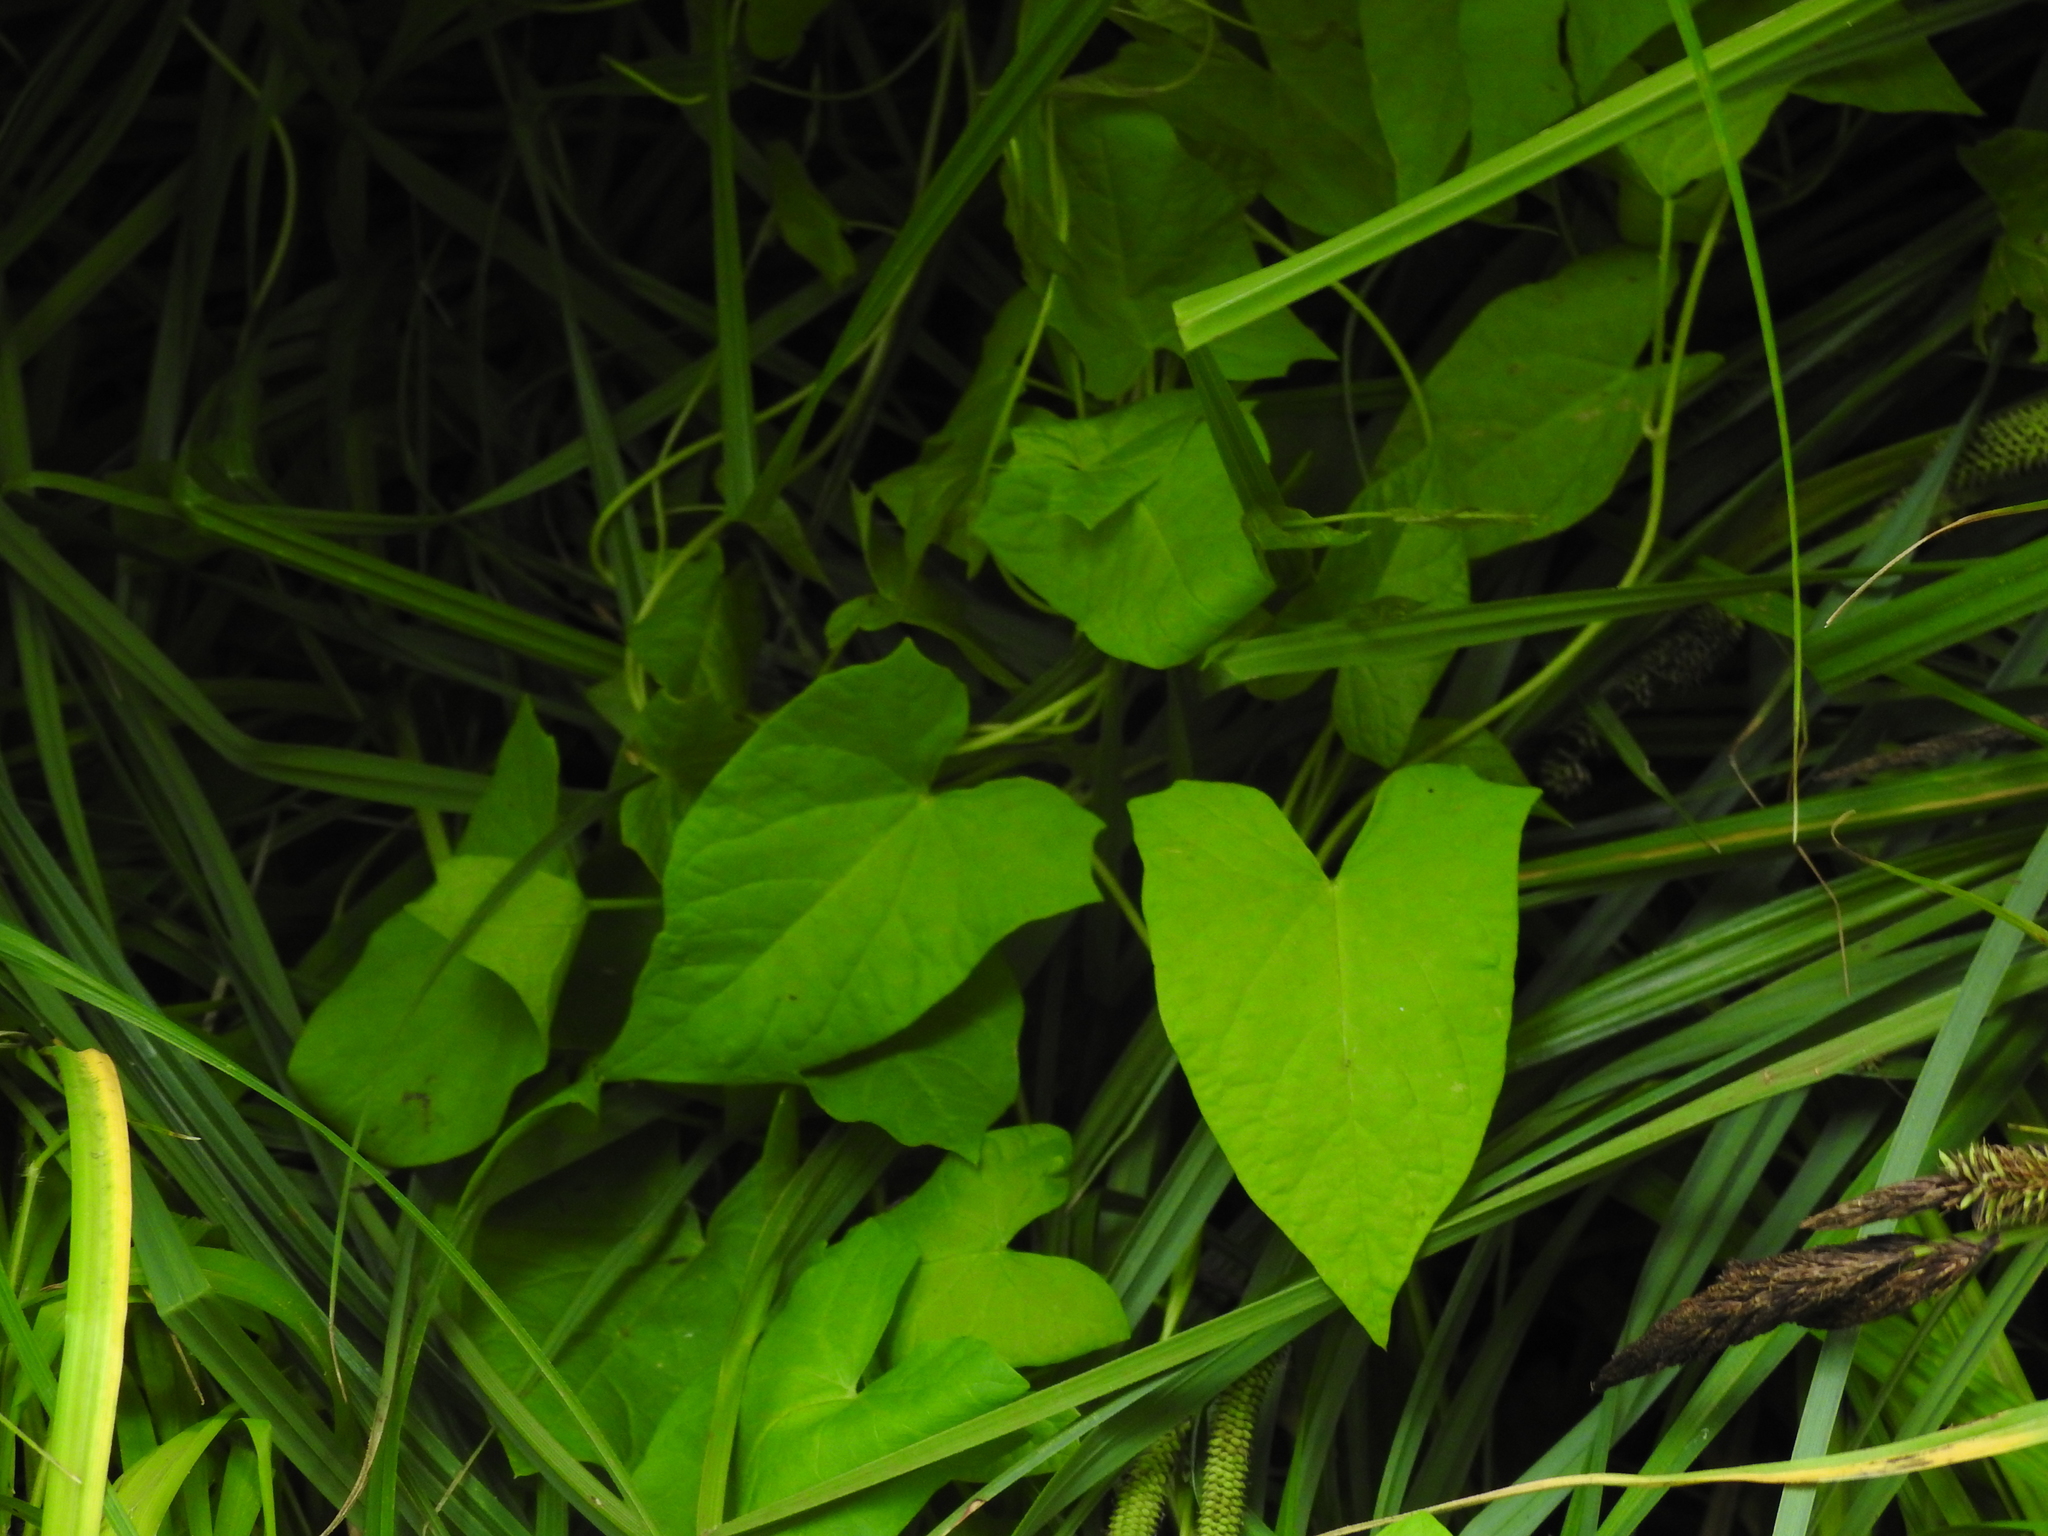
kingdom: Plantae
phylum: Tracheophyta
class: Magnoliopsida
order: Solanales
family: Convolvulaceae
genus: Calystegia
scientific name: Calystegia sepium
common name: Hedge bindweed
